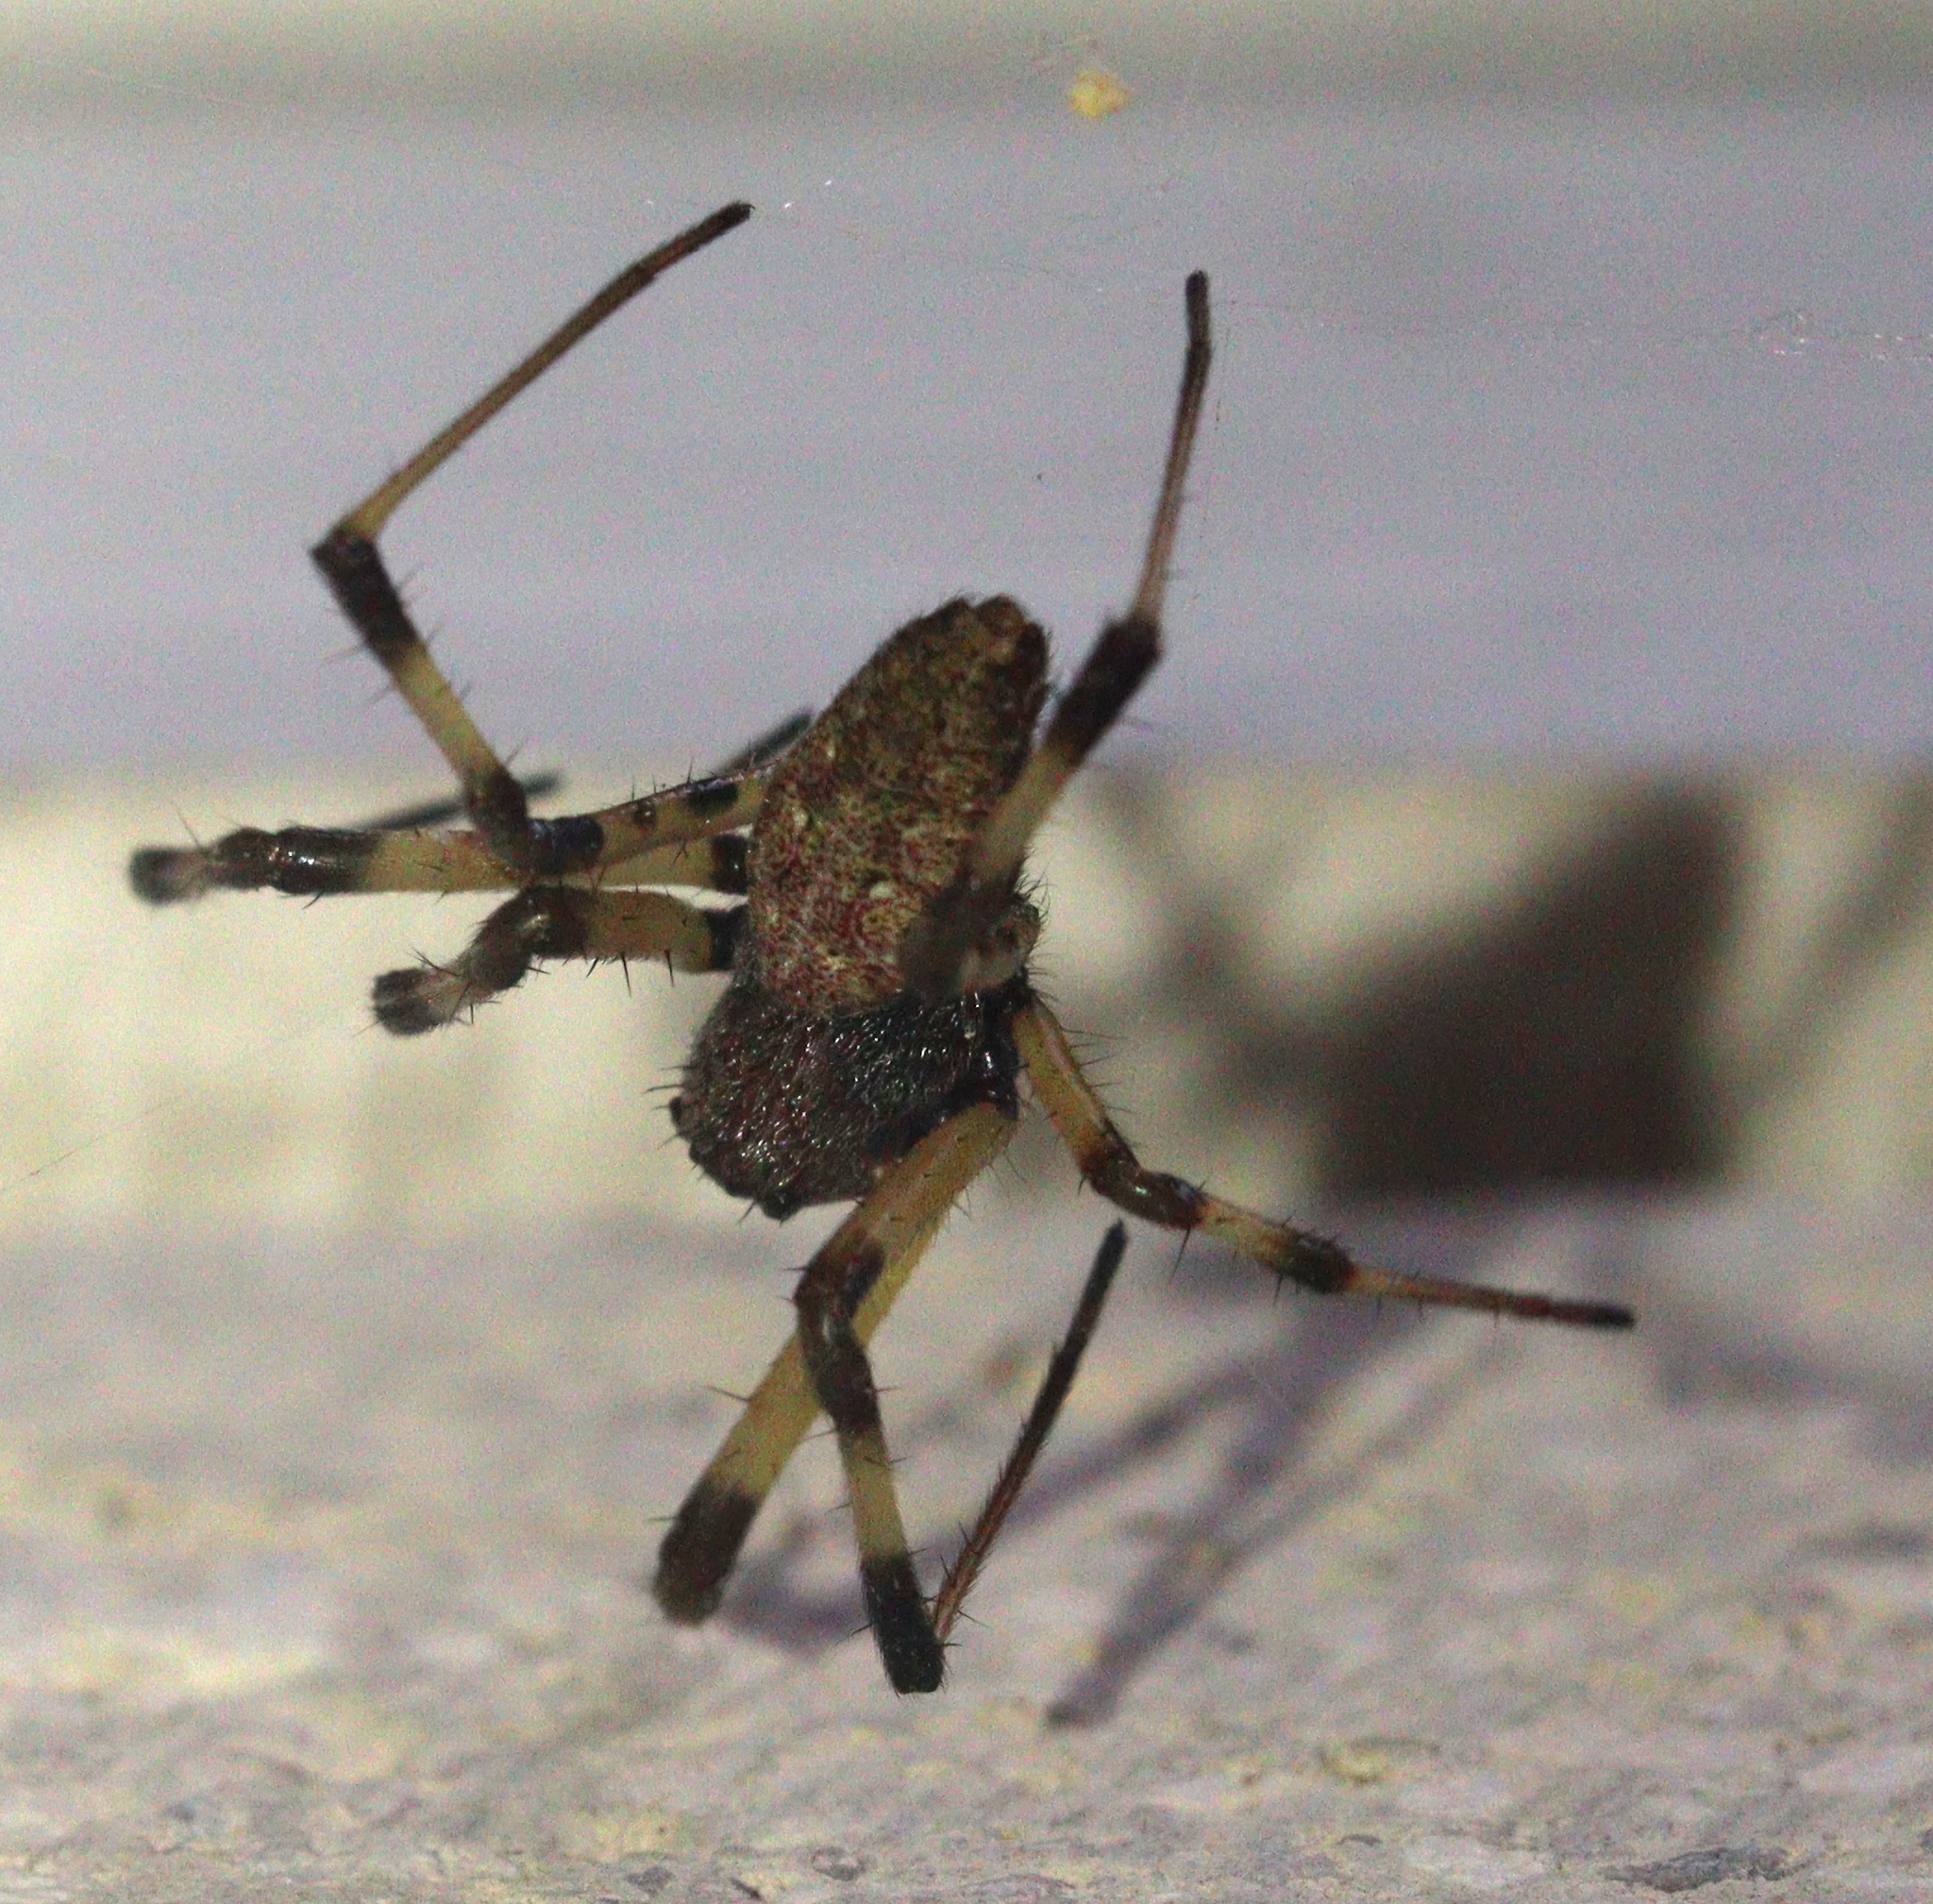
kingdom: Animalia
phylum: Arthropoda
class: Arachnida
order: Araneae
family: Araneidae
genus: Nephilengys
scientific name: Nephilengys malabarensis
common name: Asian hermit spider
